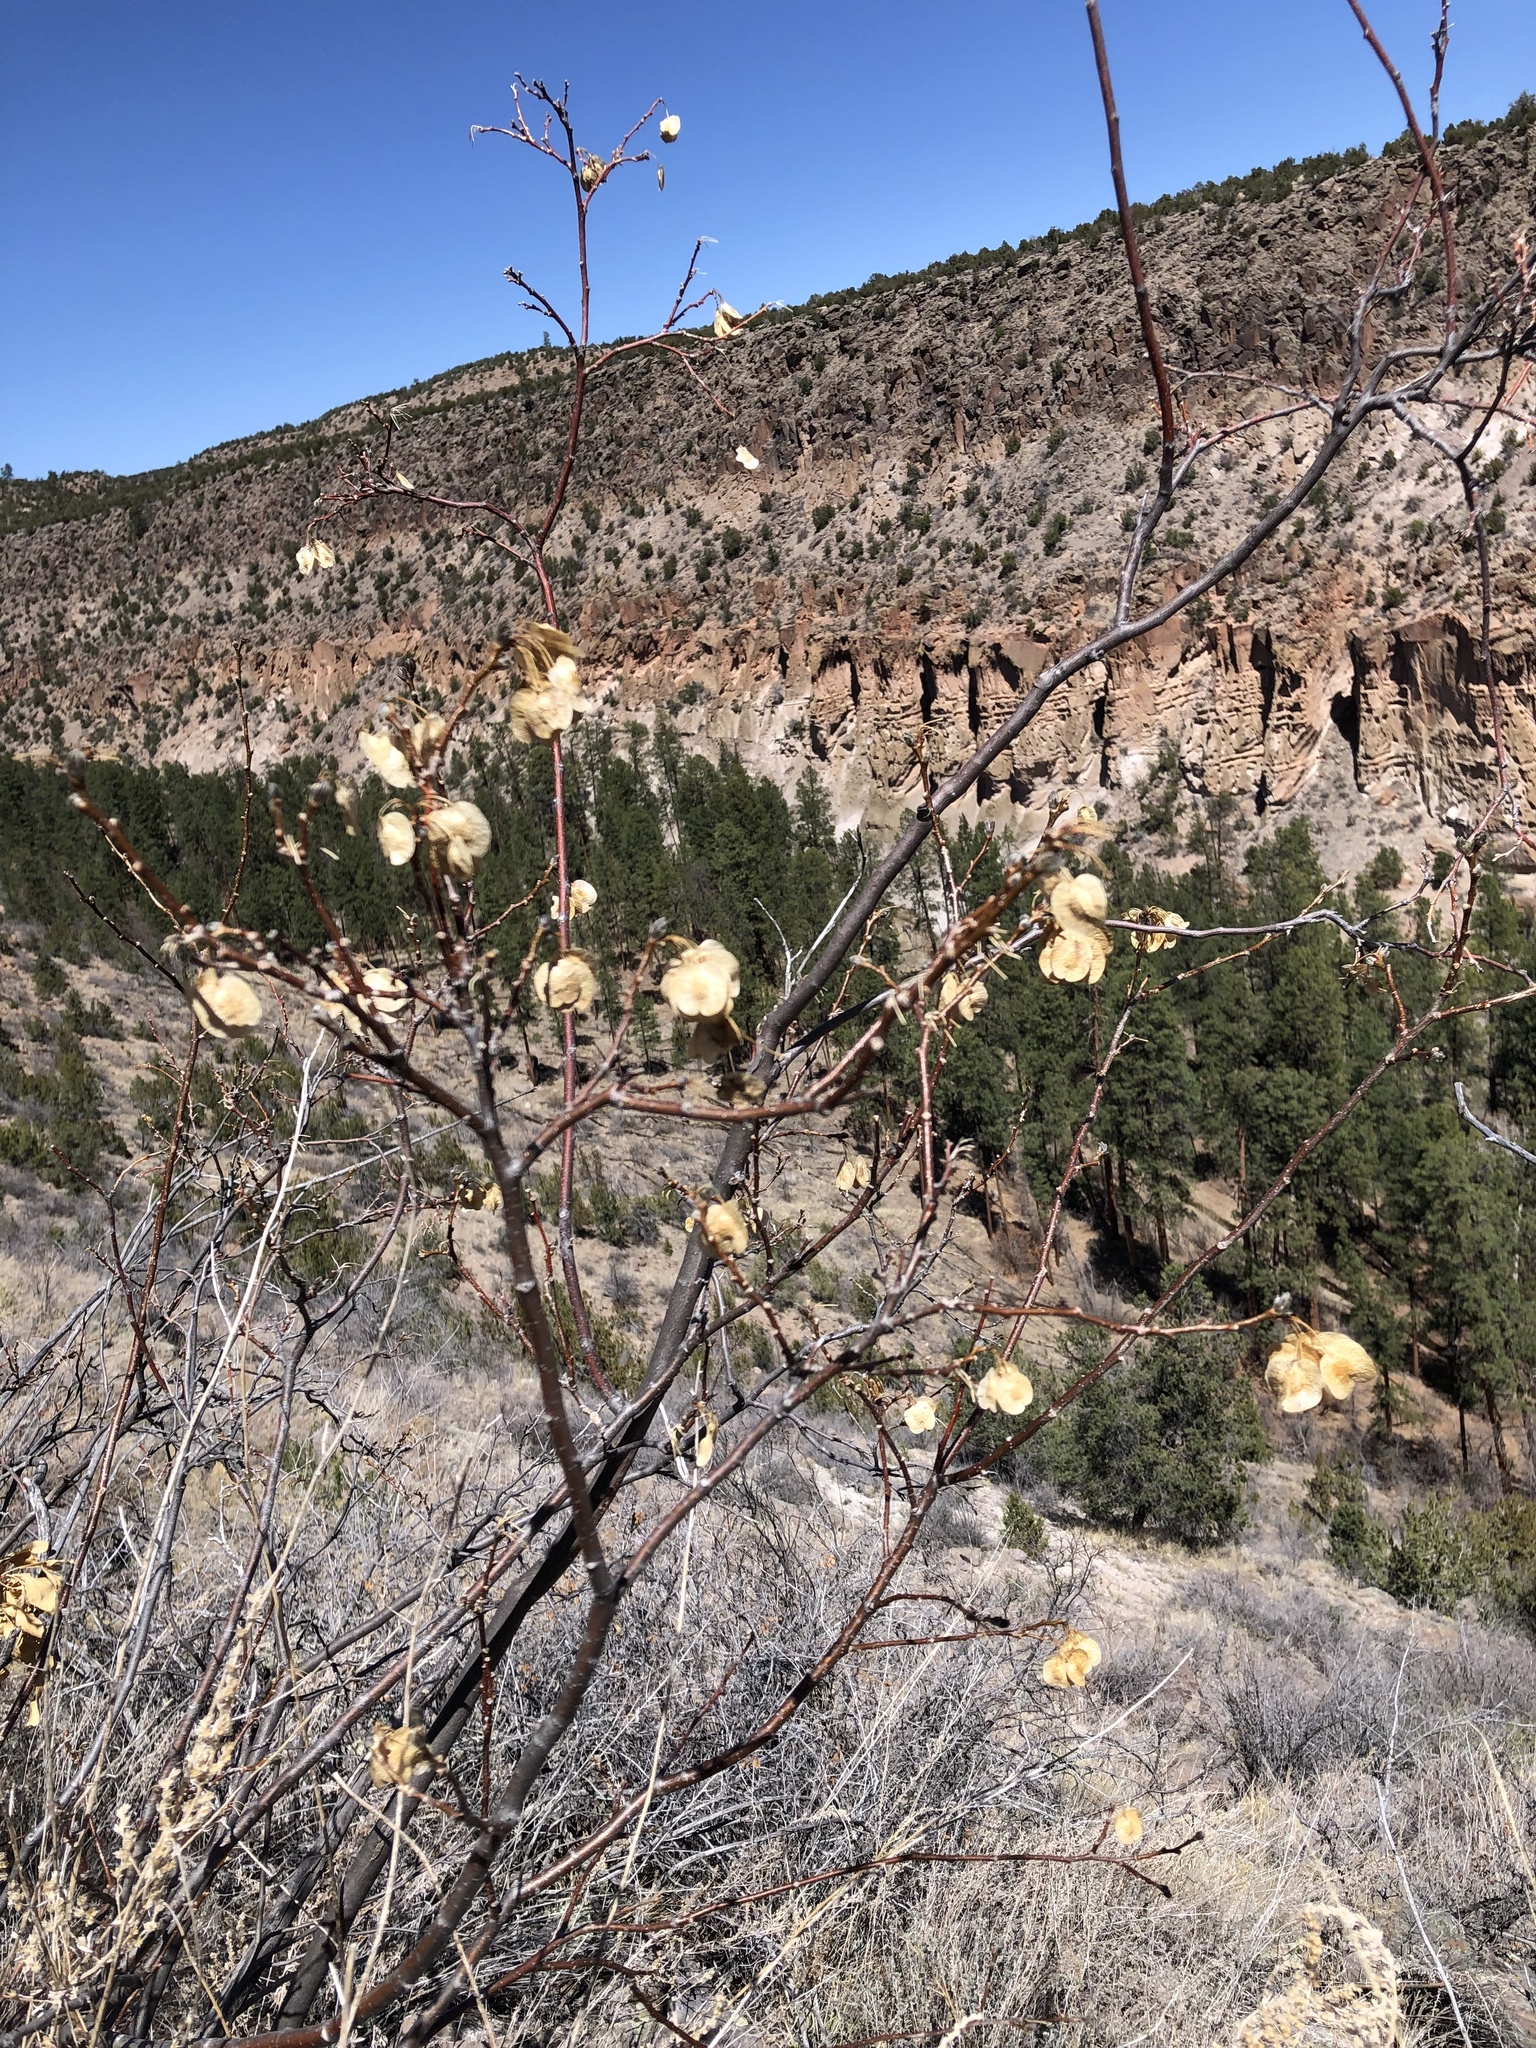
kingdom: Plantae
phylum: Tracheophyta
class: Magnoliopsida
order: Sapindales
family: Rutaceae
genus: Ptelea
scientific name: Ptelea trifoliata
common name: Common hop-tree
